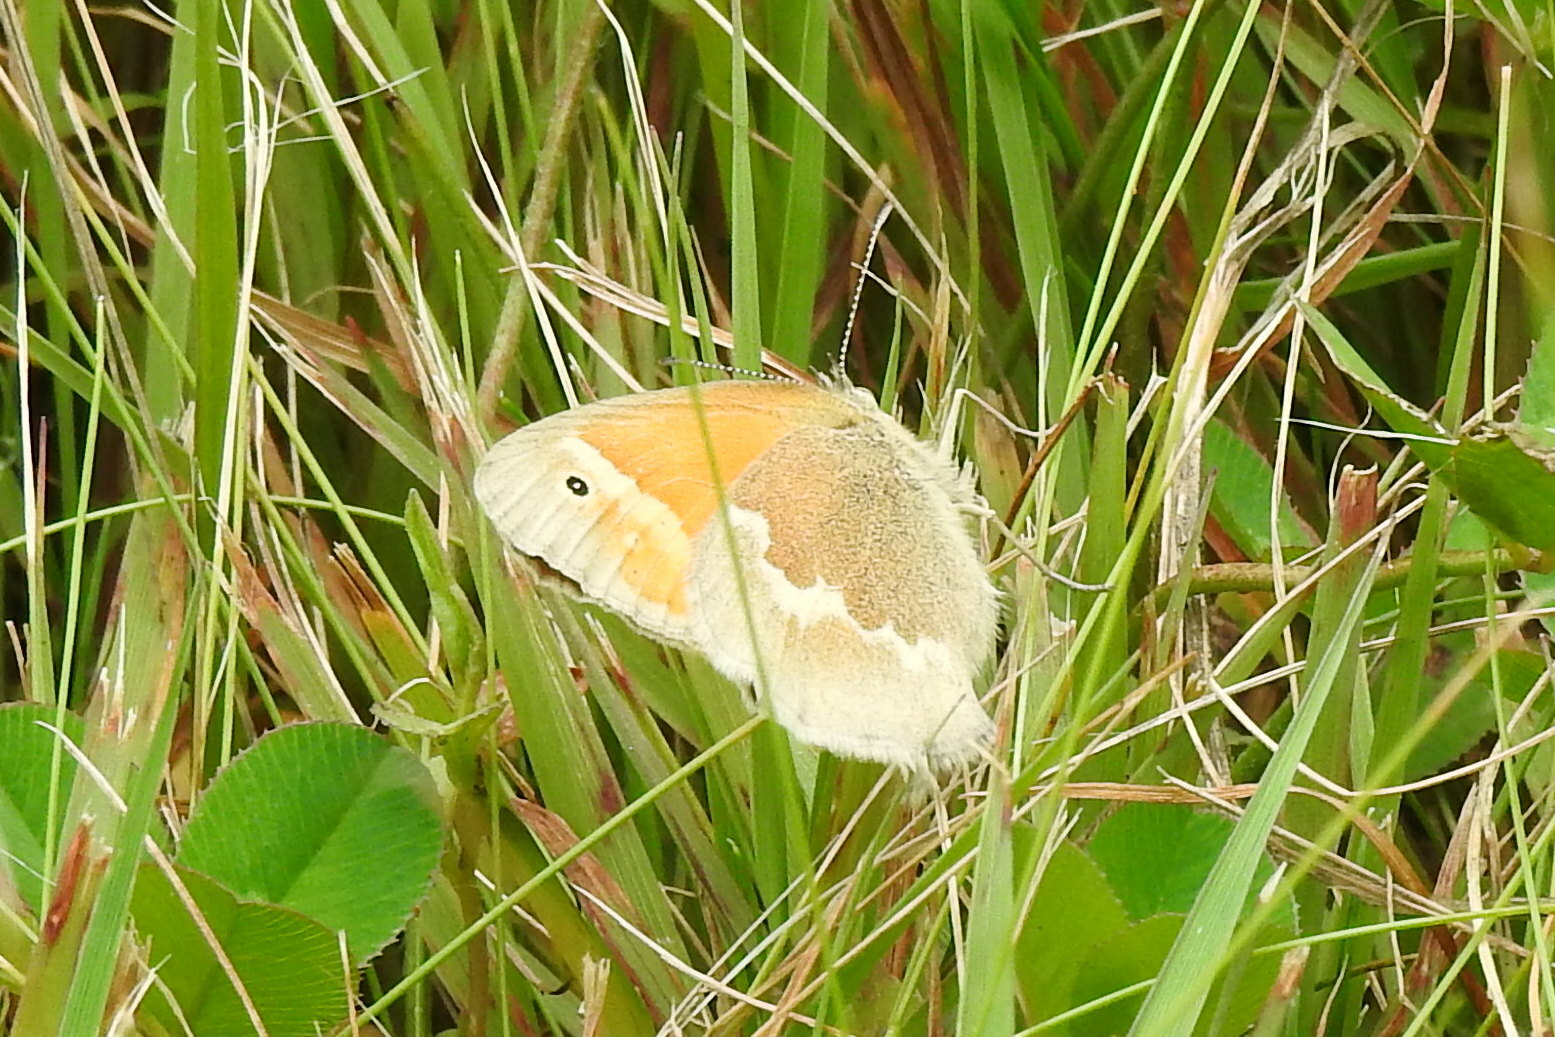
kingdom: Animalia
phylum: Arthropoda
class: Insecta
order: Lepidoptera
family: Nymphalidae
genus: Coenonympha
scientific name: Coenonympha california
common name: Common ringlet
